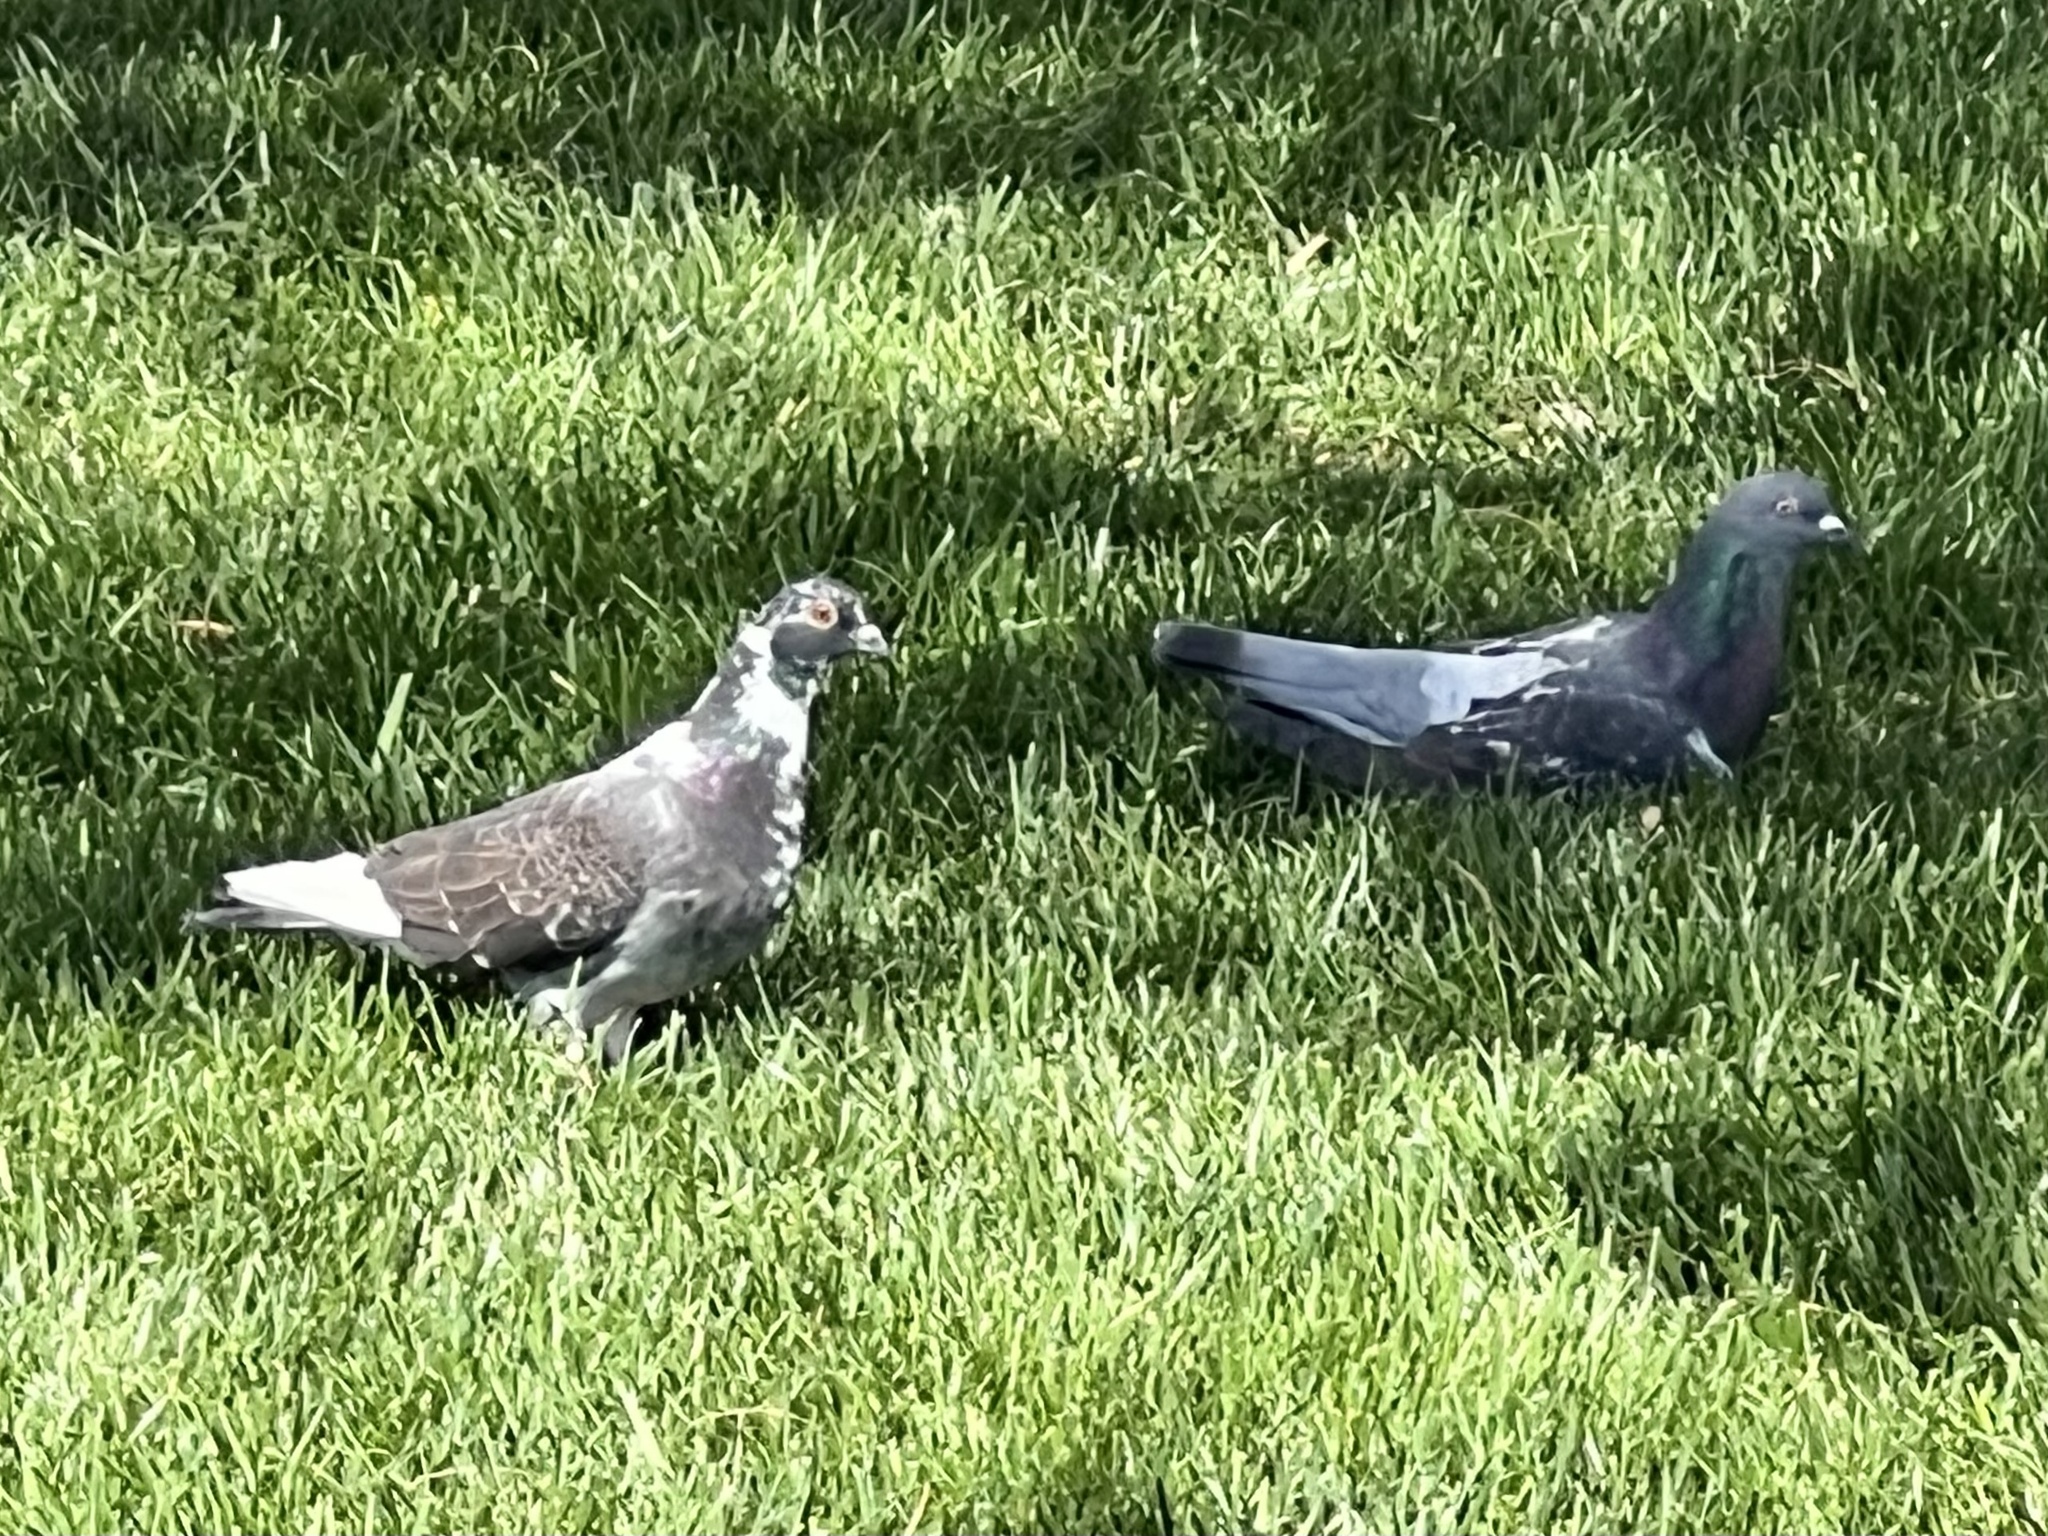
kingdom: Animalia
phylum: Chordata
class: Aves
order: Columbiformes
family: Columbidae
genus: Columba
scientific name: Columba livia
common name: Rock pigeon
